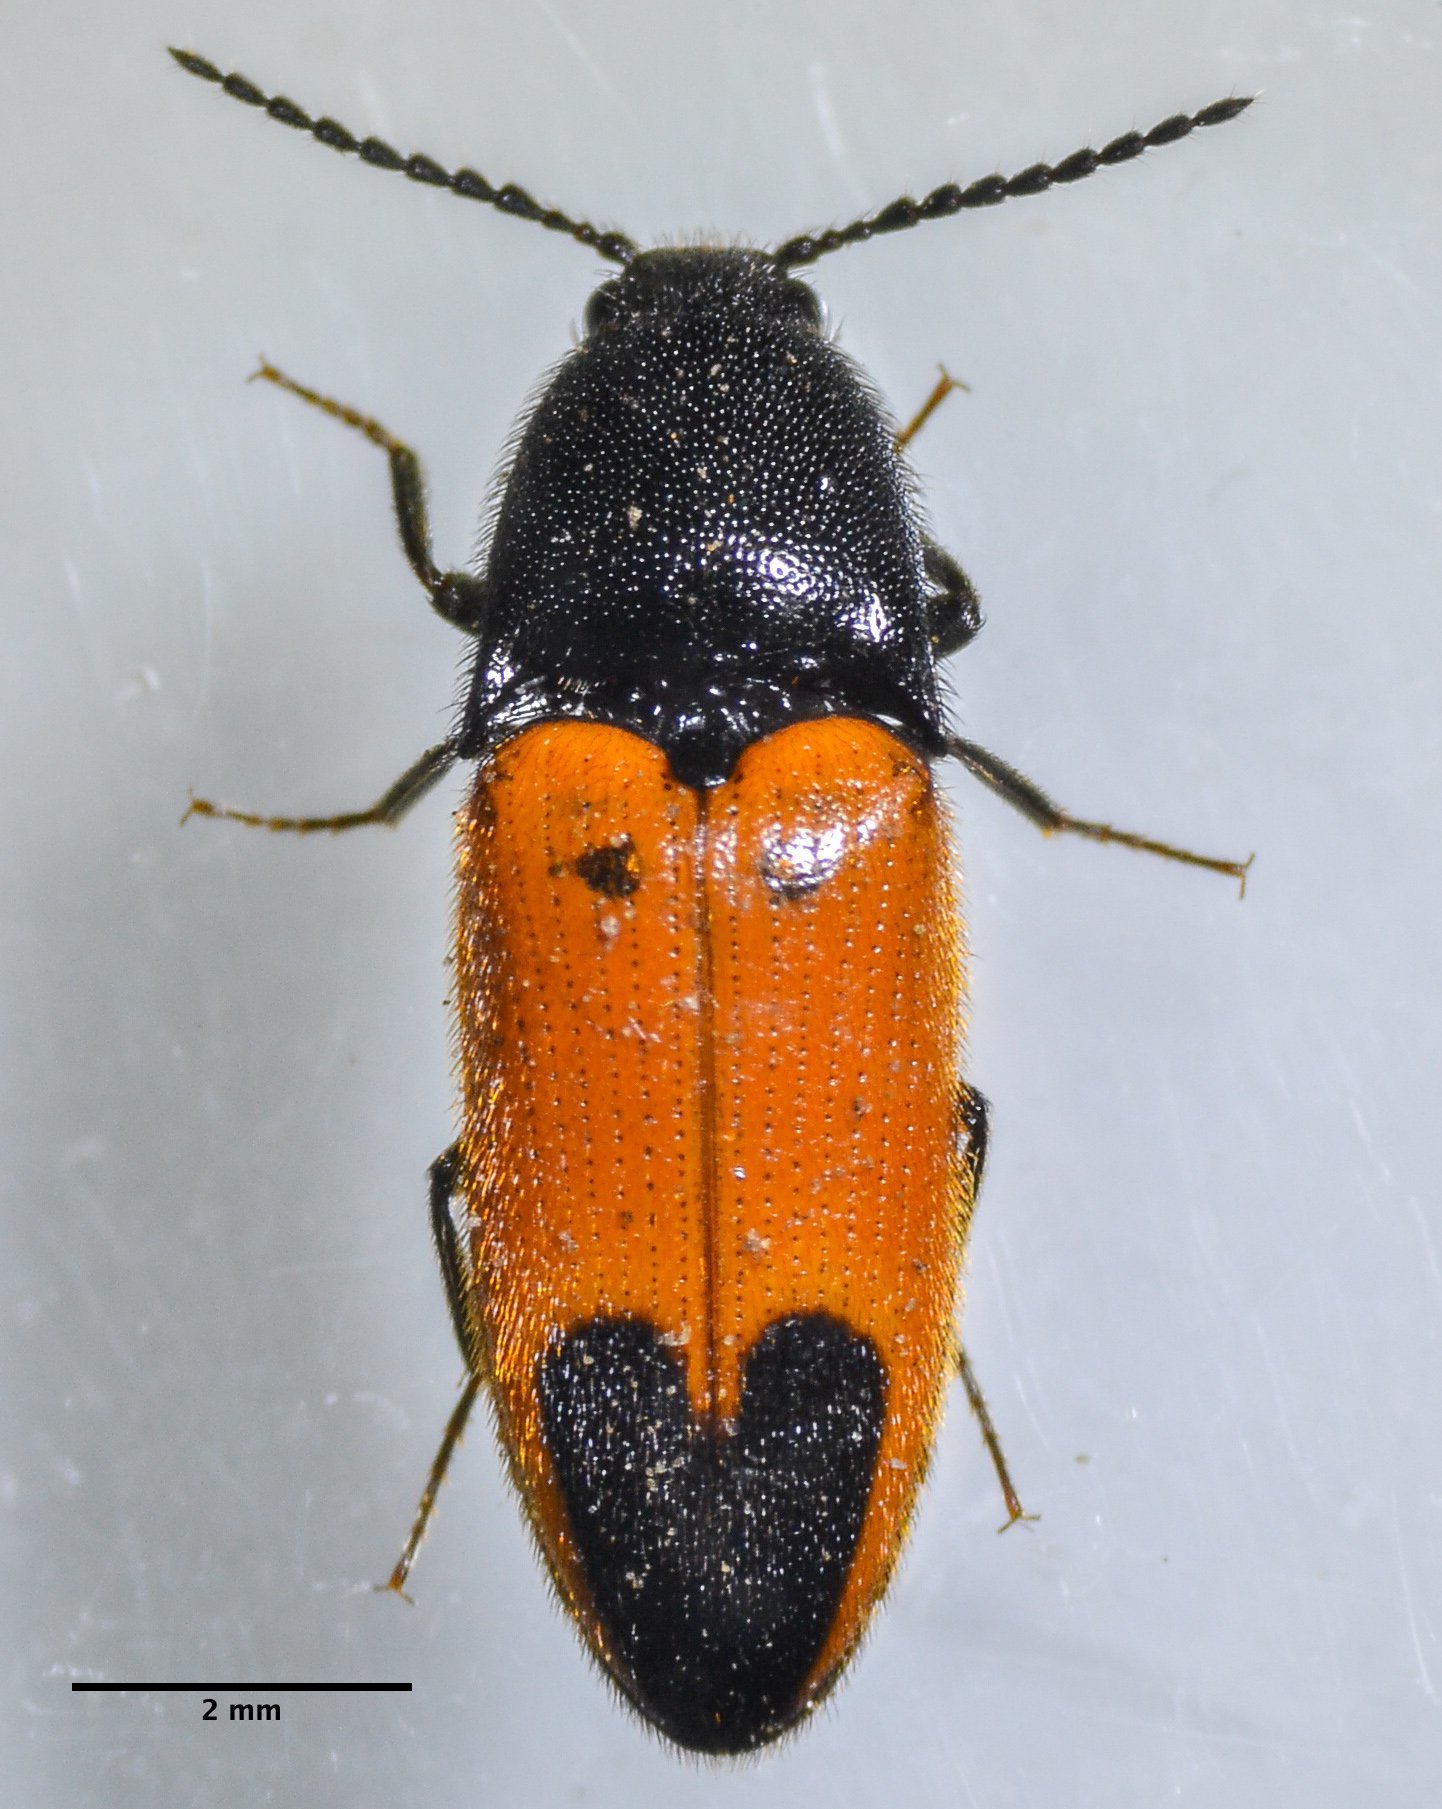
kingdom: Animalia
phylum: Arthropoda
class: Insecta
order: Coleoptera
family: Elateridae
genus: Ampedus
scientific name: Ampedus
